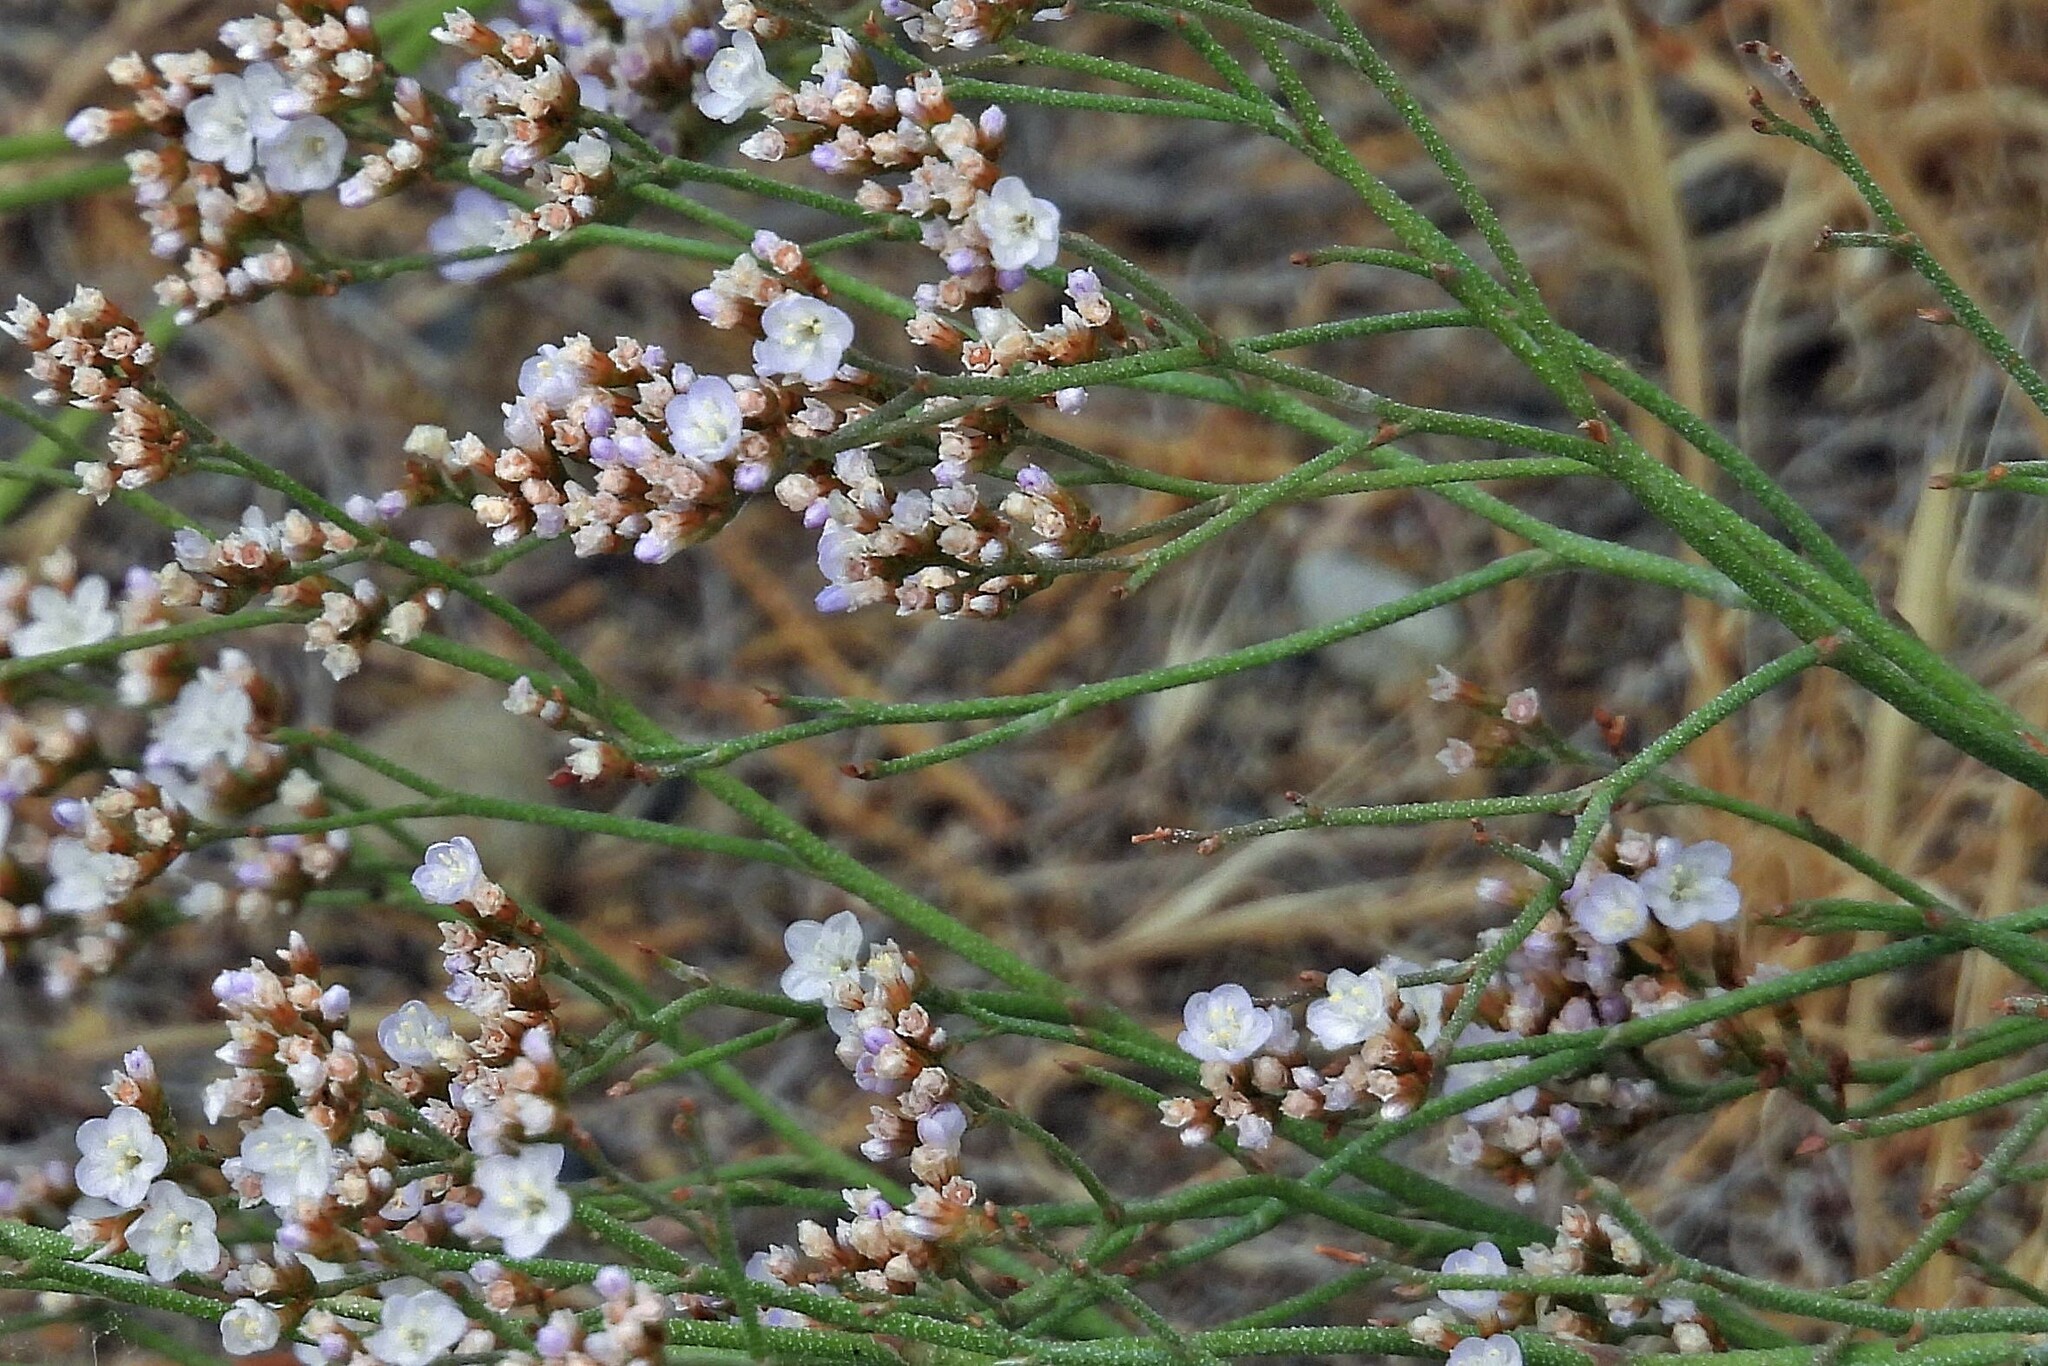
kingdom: Plantae
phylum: Tracheophyta
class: Magnoliopsida
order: Caryophyllales
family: Plumbaginaceae
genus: Limonium
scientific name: Limonium brasiliense
